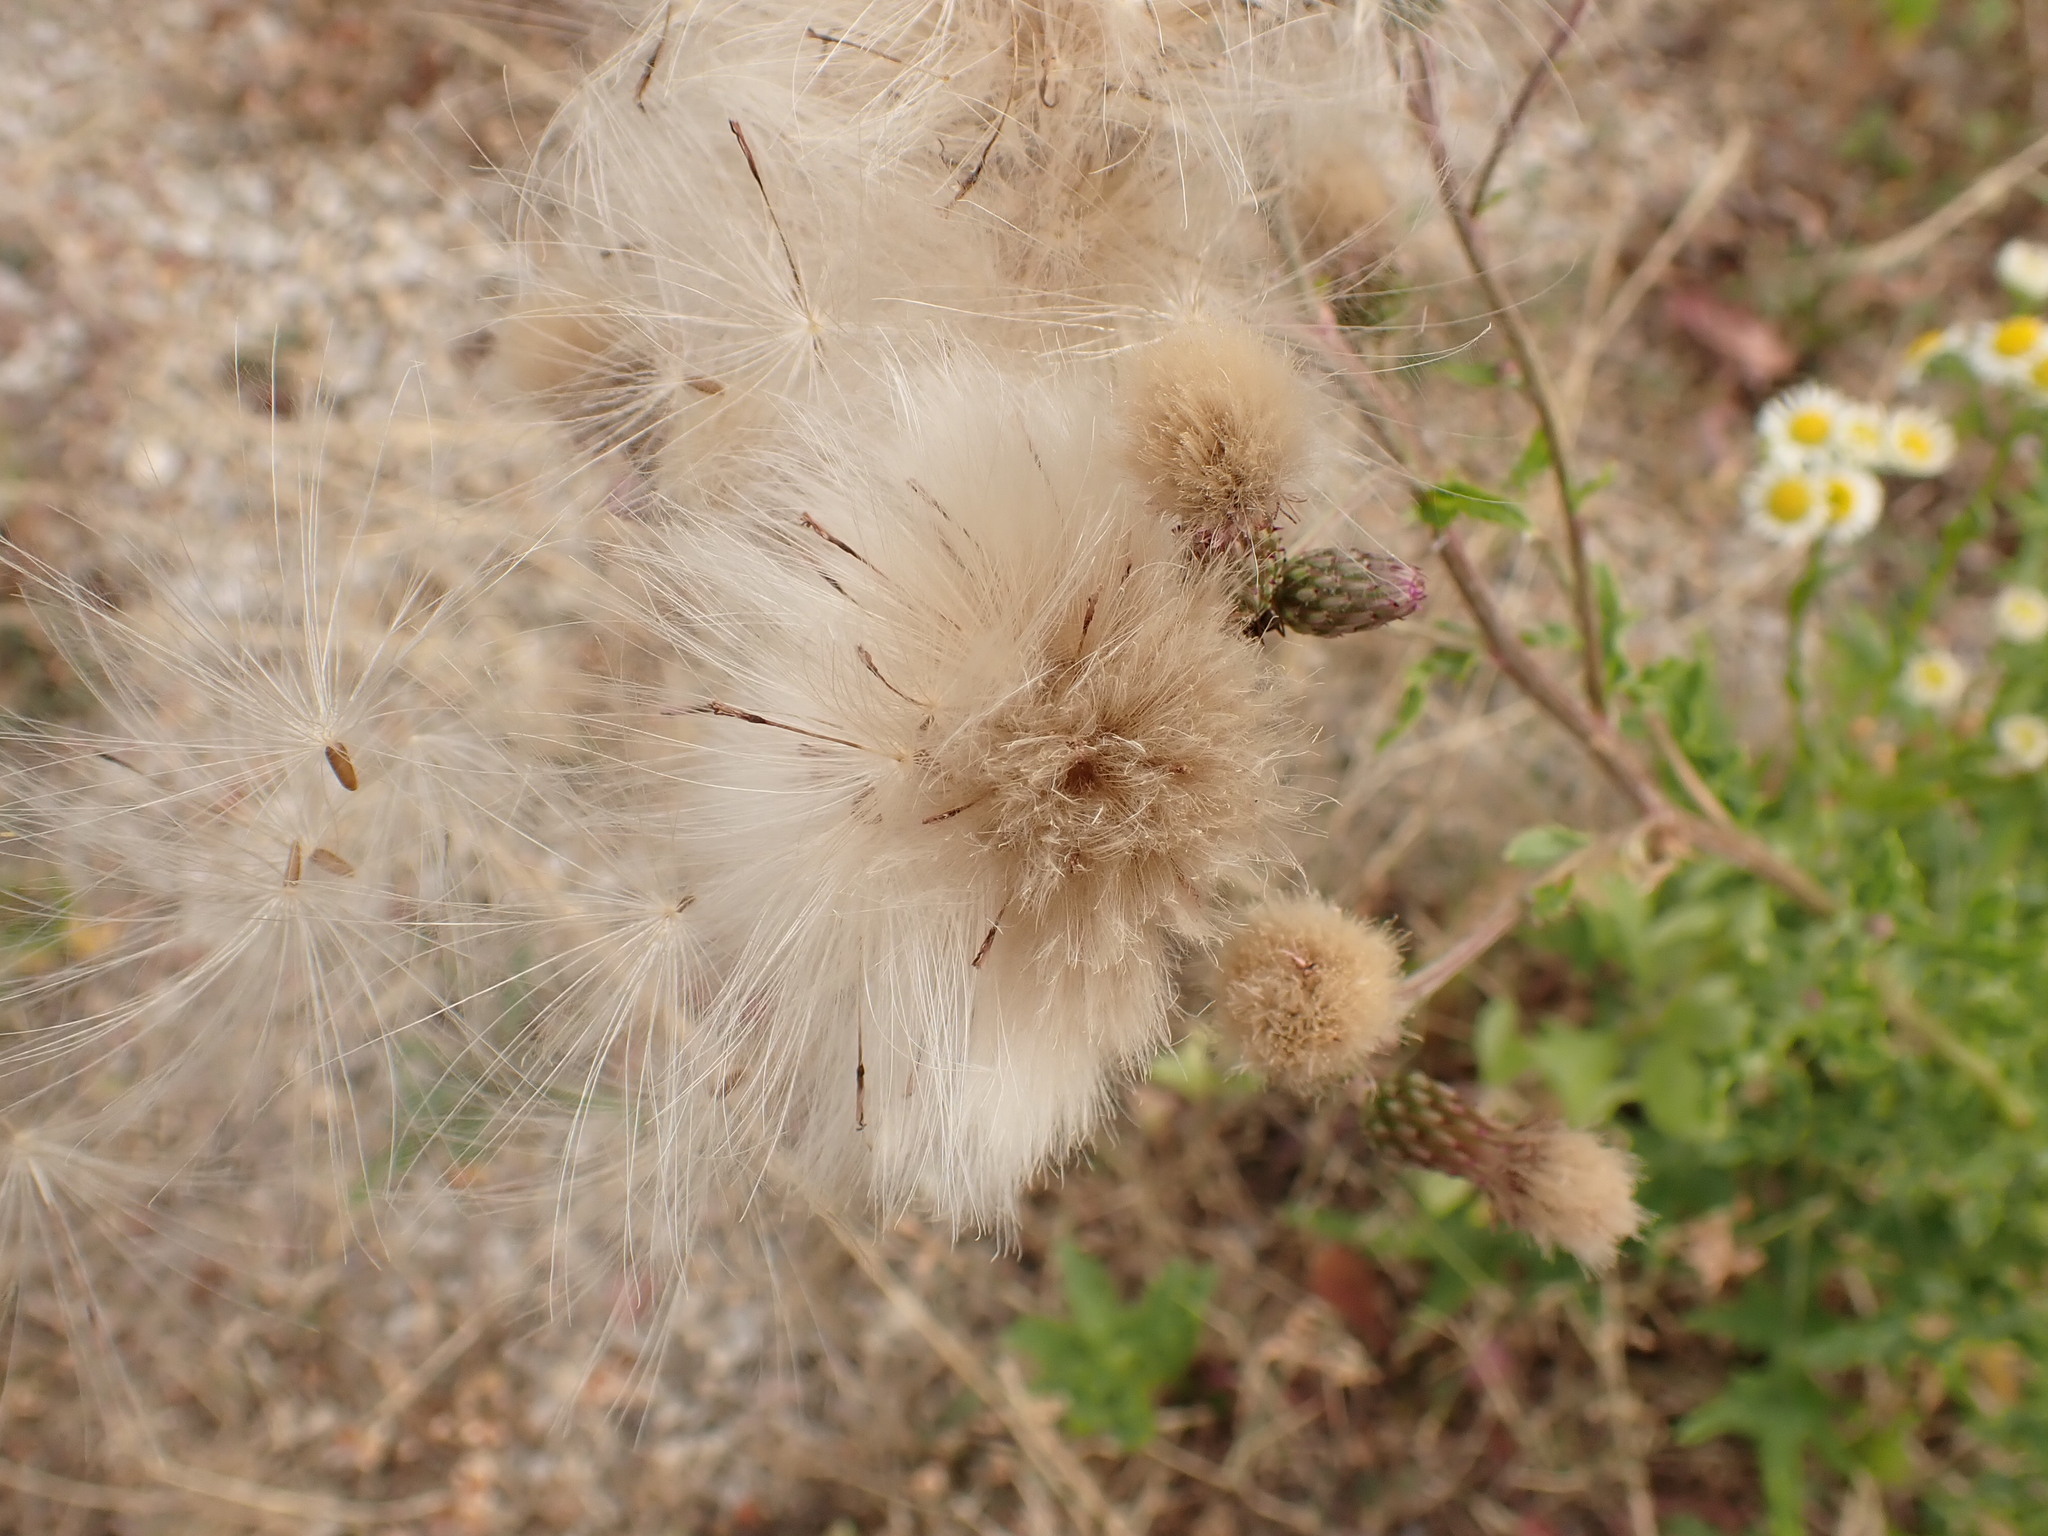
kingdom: Plantae
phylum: Tracheophyta
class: Magnoliopsida
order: Asterales
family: Asteraceae
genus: Cirsium
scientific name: Cirsium arvense
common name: Creeping thistle
